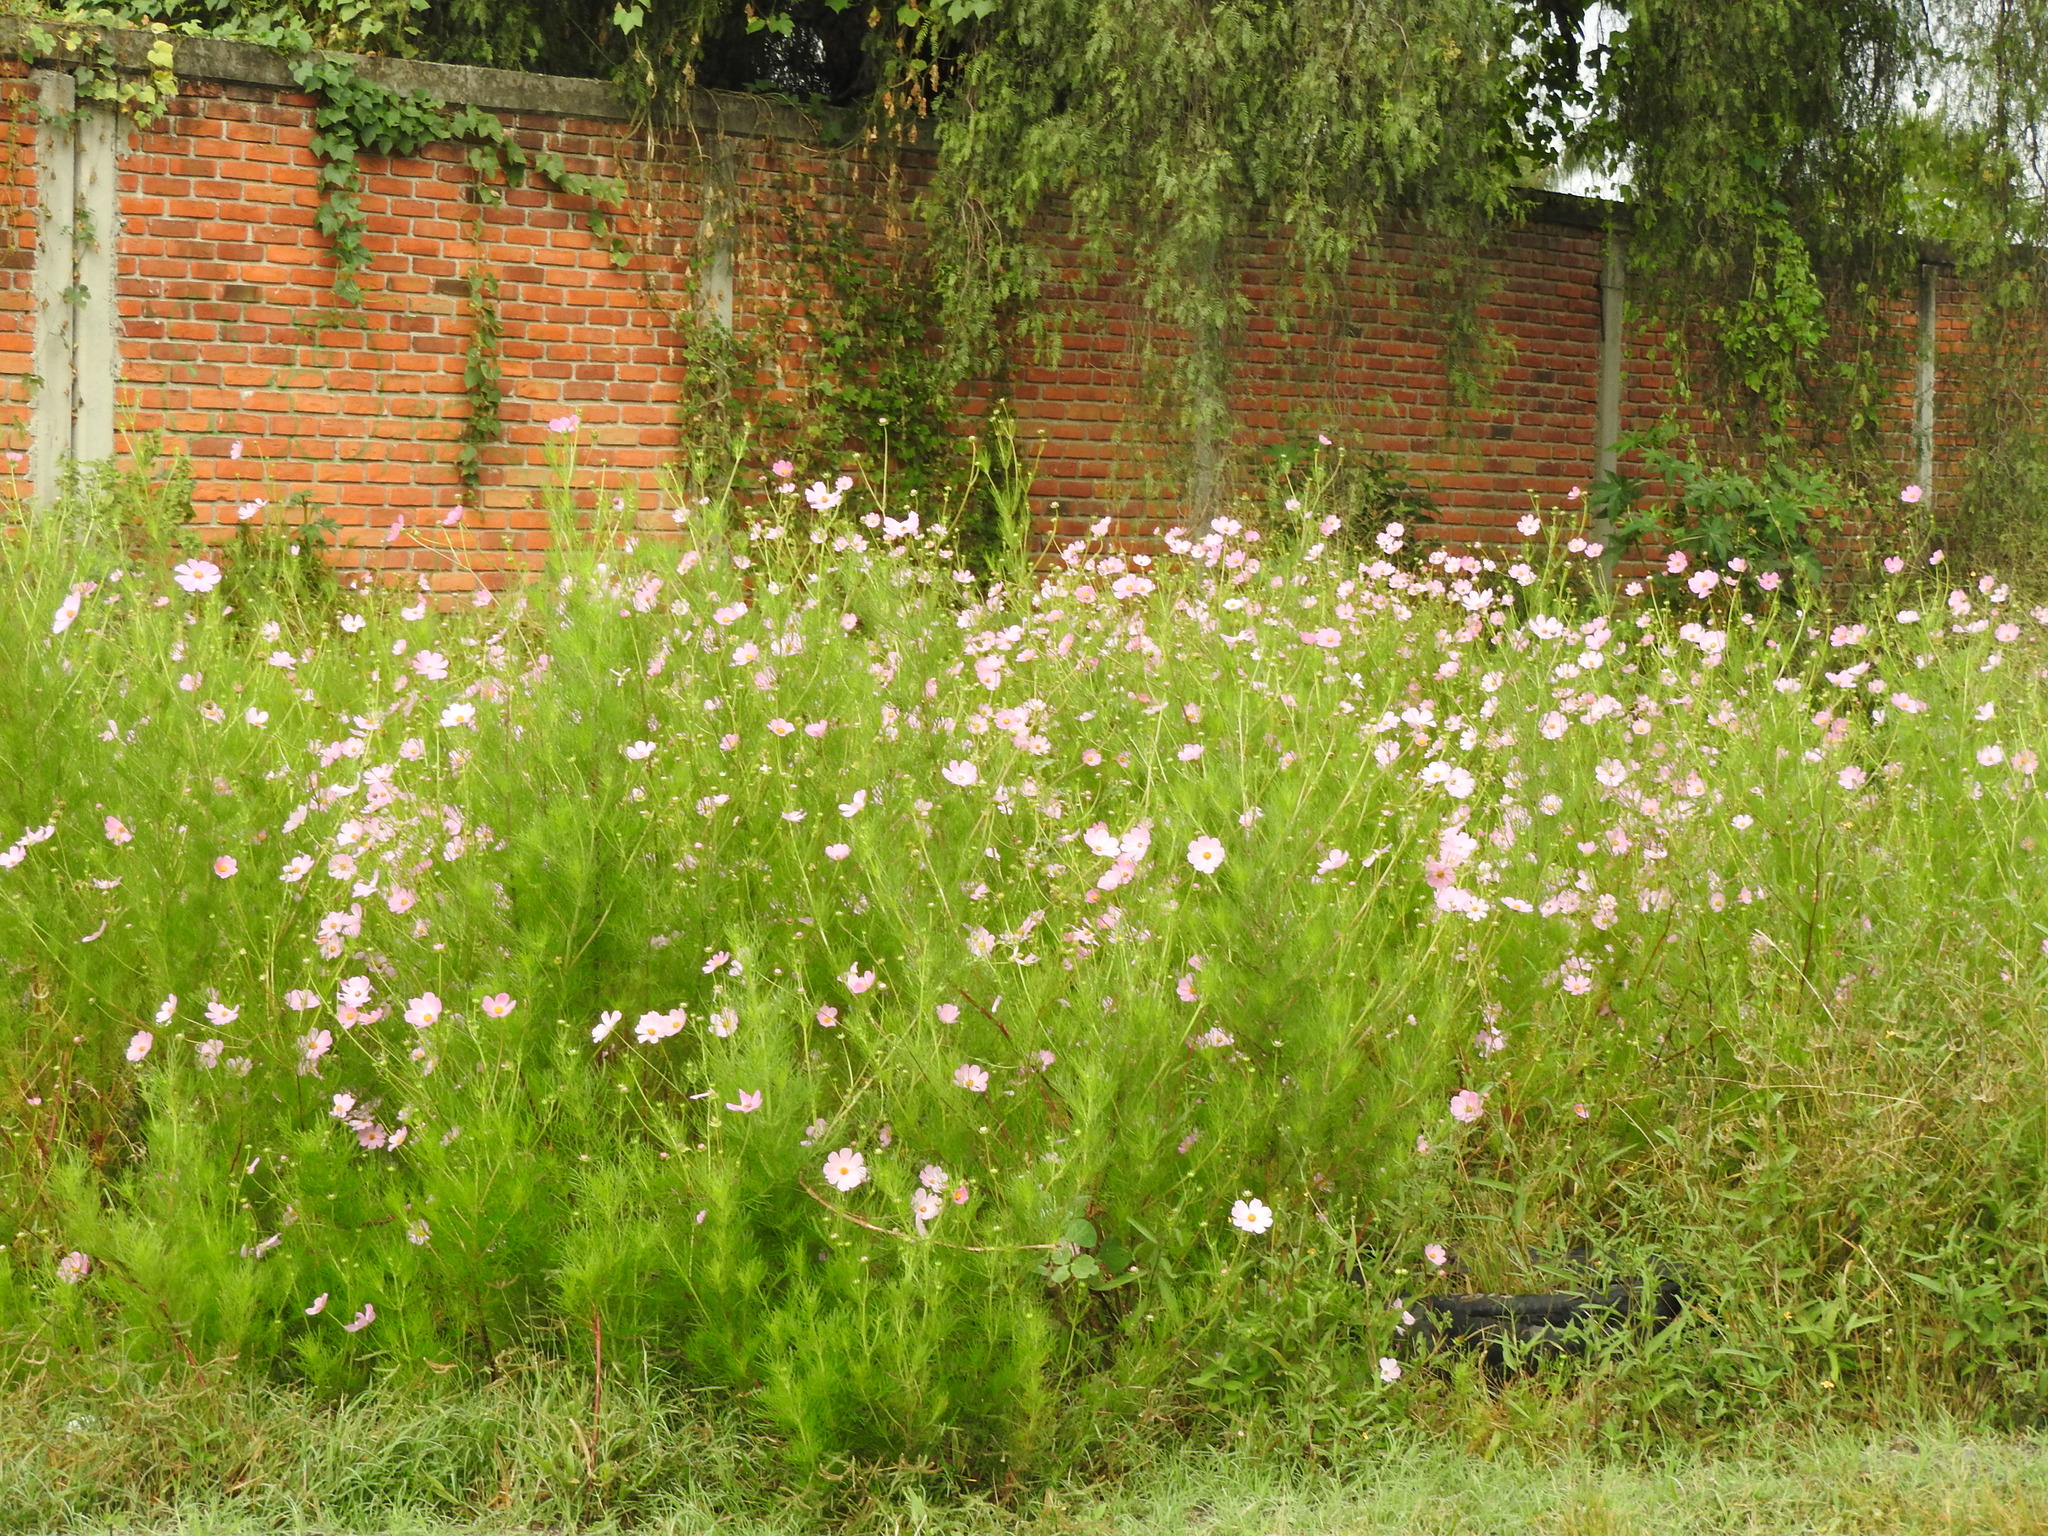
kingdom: Plantae
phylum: Tracheophyta
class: Magnoliopsida
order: Asterales
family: Asteraceae
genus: Cosmos
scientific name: Cosmos bipinnatus
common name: Garden cosmos
